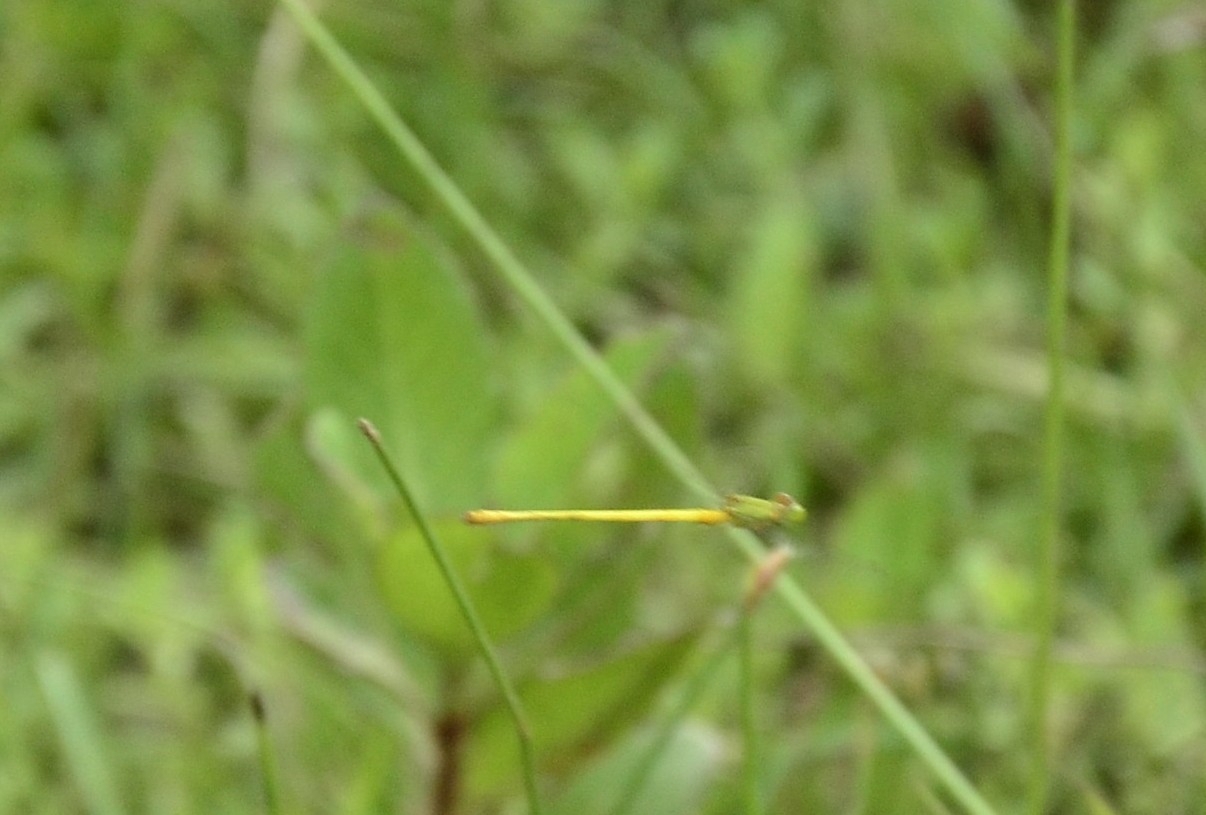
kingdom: Animalia
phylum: Arthropoda
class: Insecta
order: Odonata
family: Coenagrionidae
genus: Ceriagrion
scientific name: Ceriagrion coromandelianum
